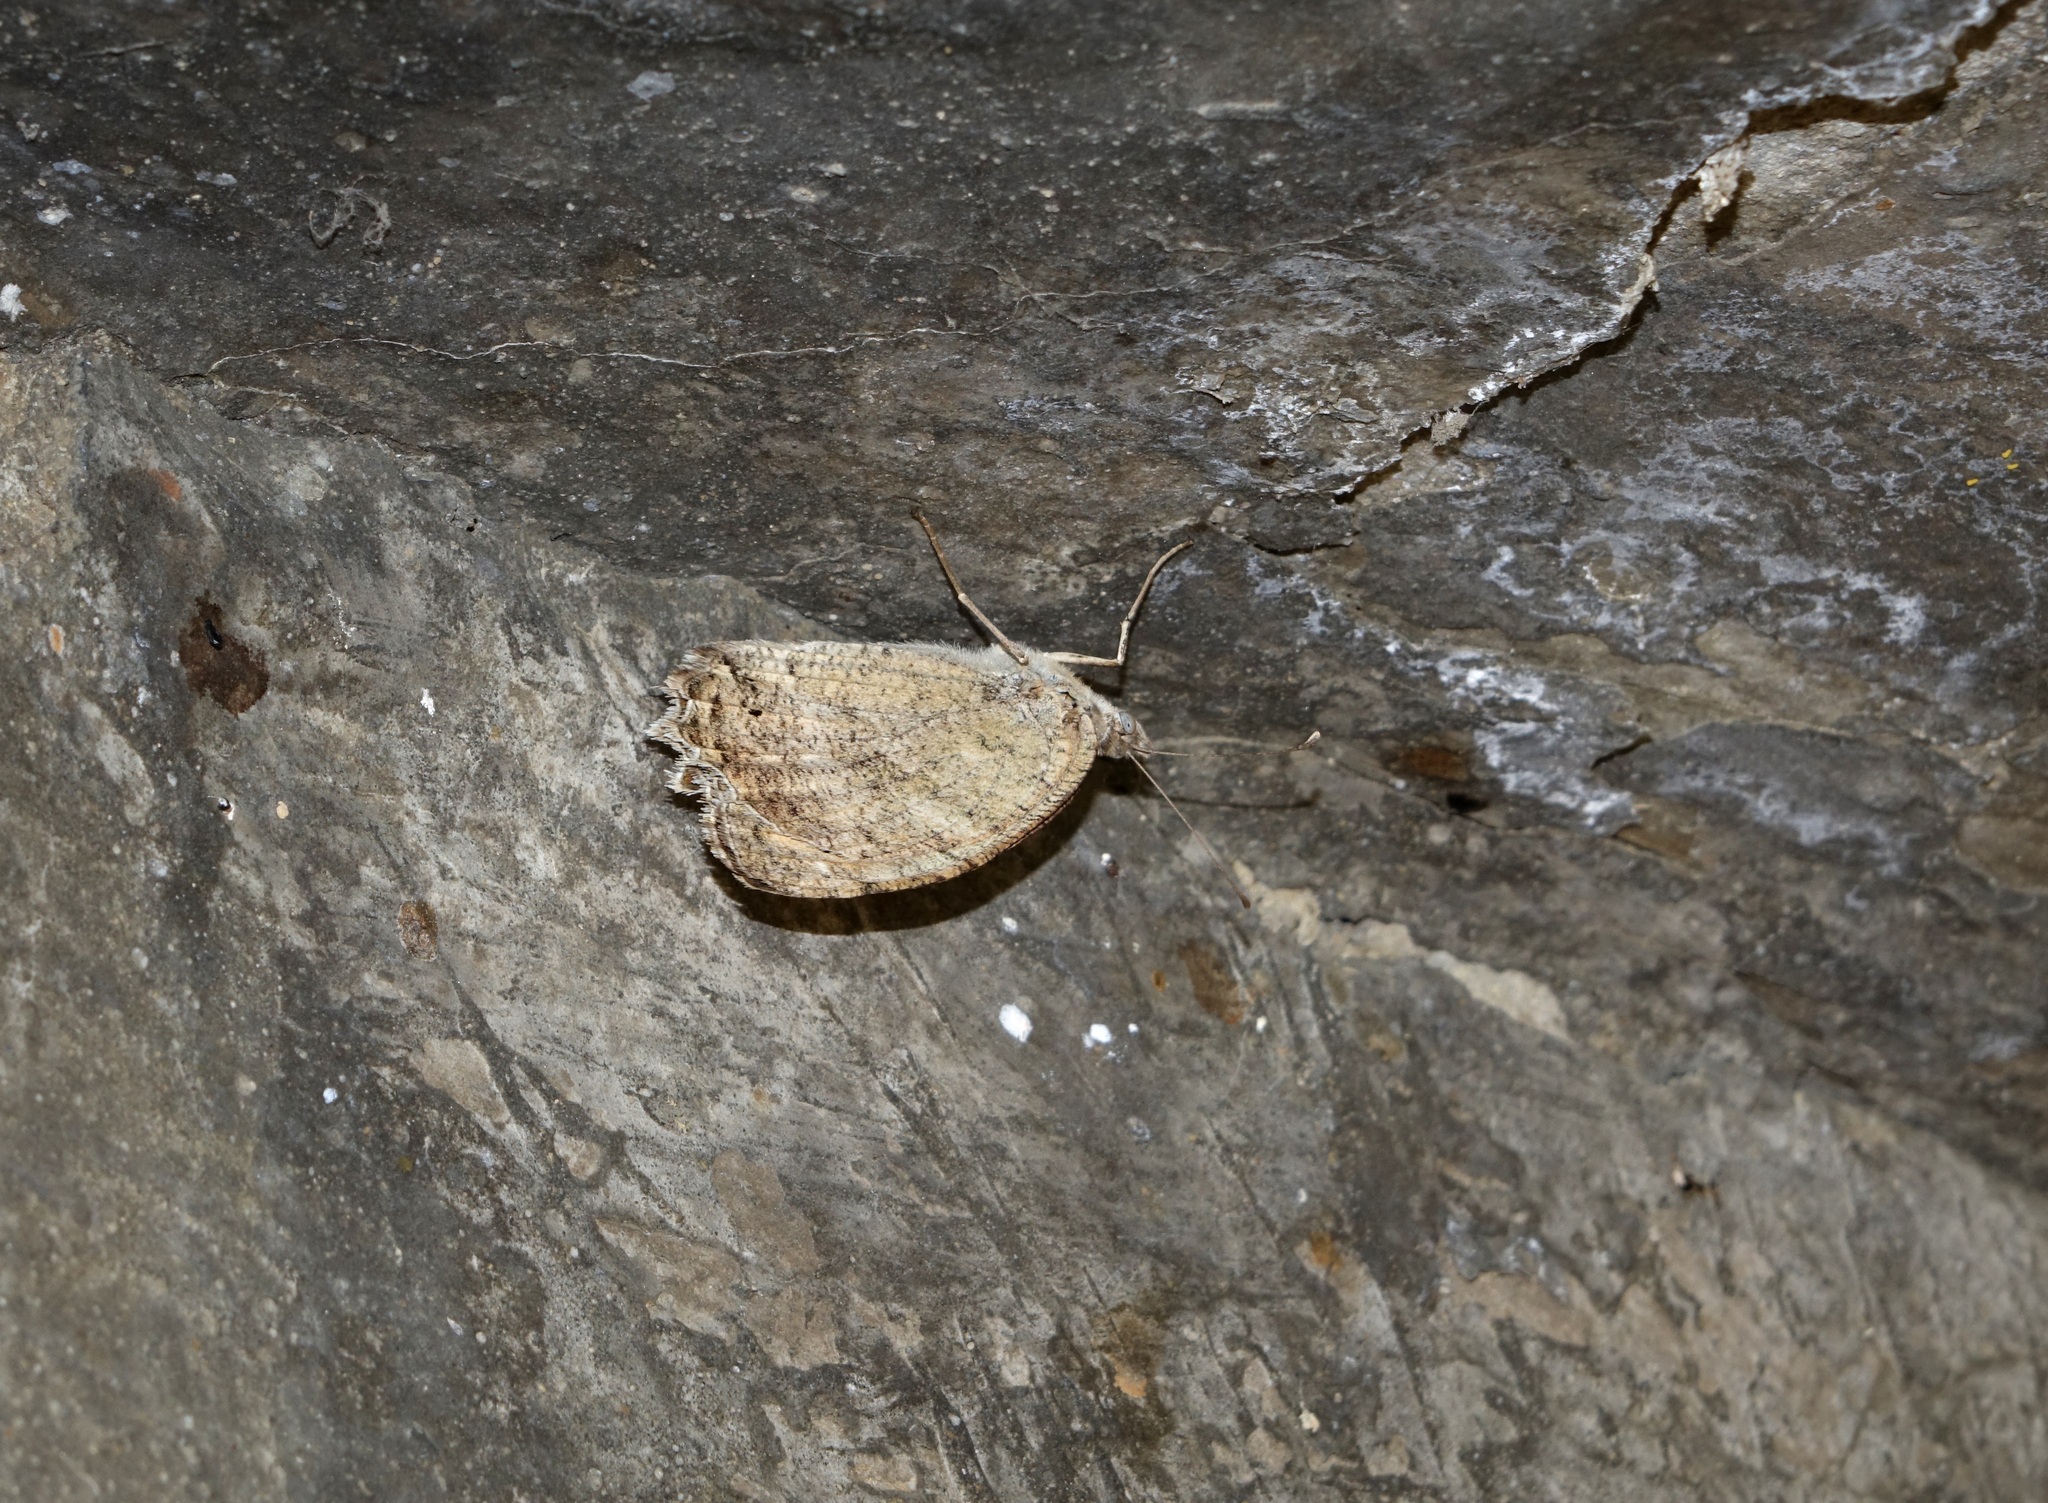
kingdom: Animalia
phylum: Arthropoda
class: Insecta
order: Lepidoptera
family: Nymphalidae
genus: Pseudochazara
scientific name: Pseudochazara pelopea
